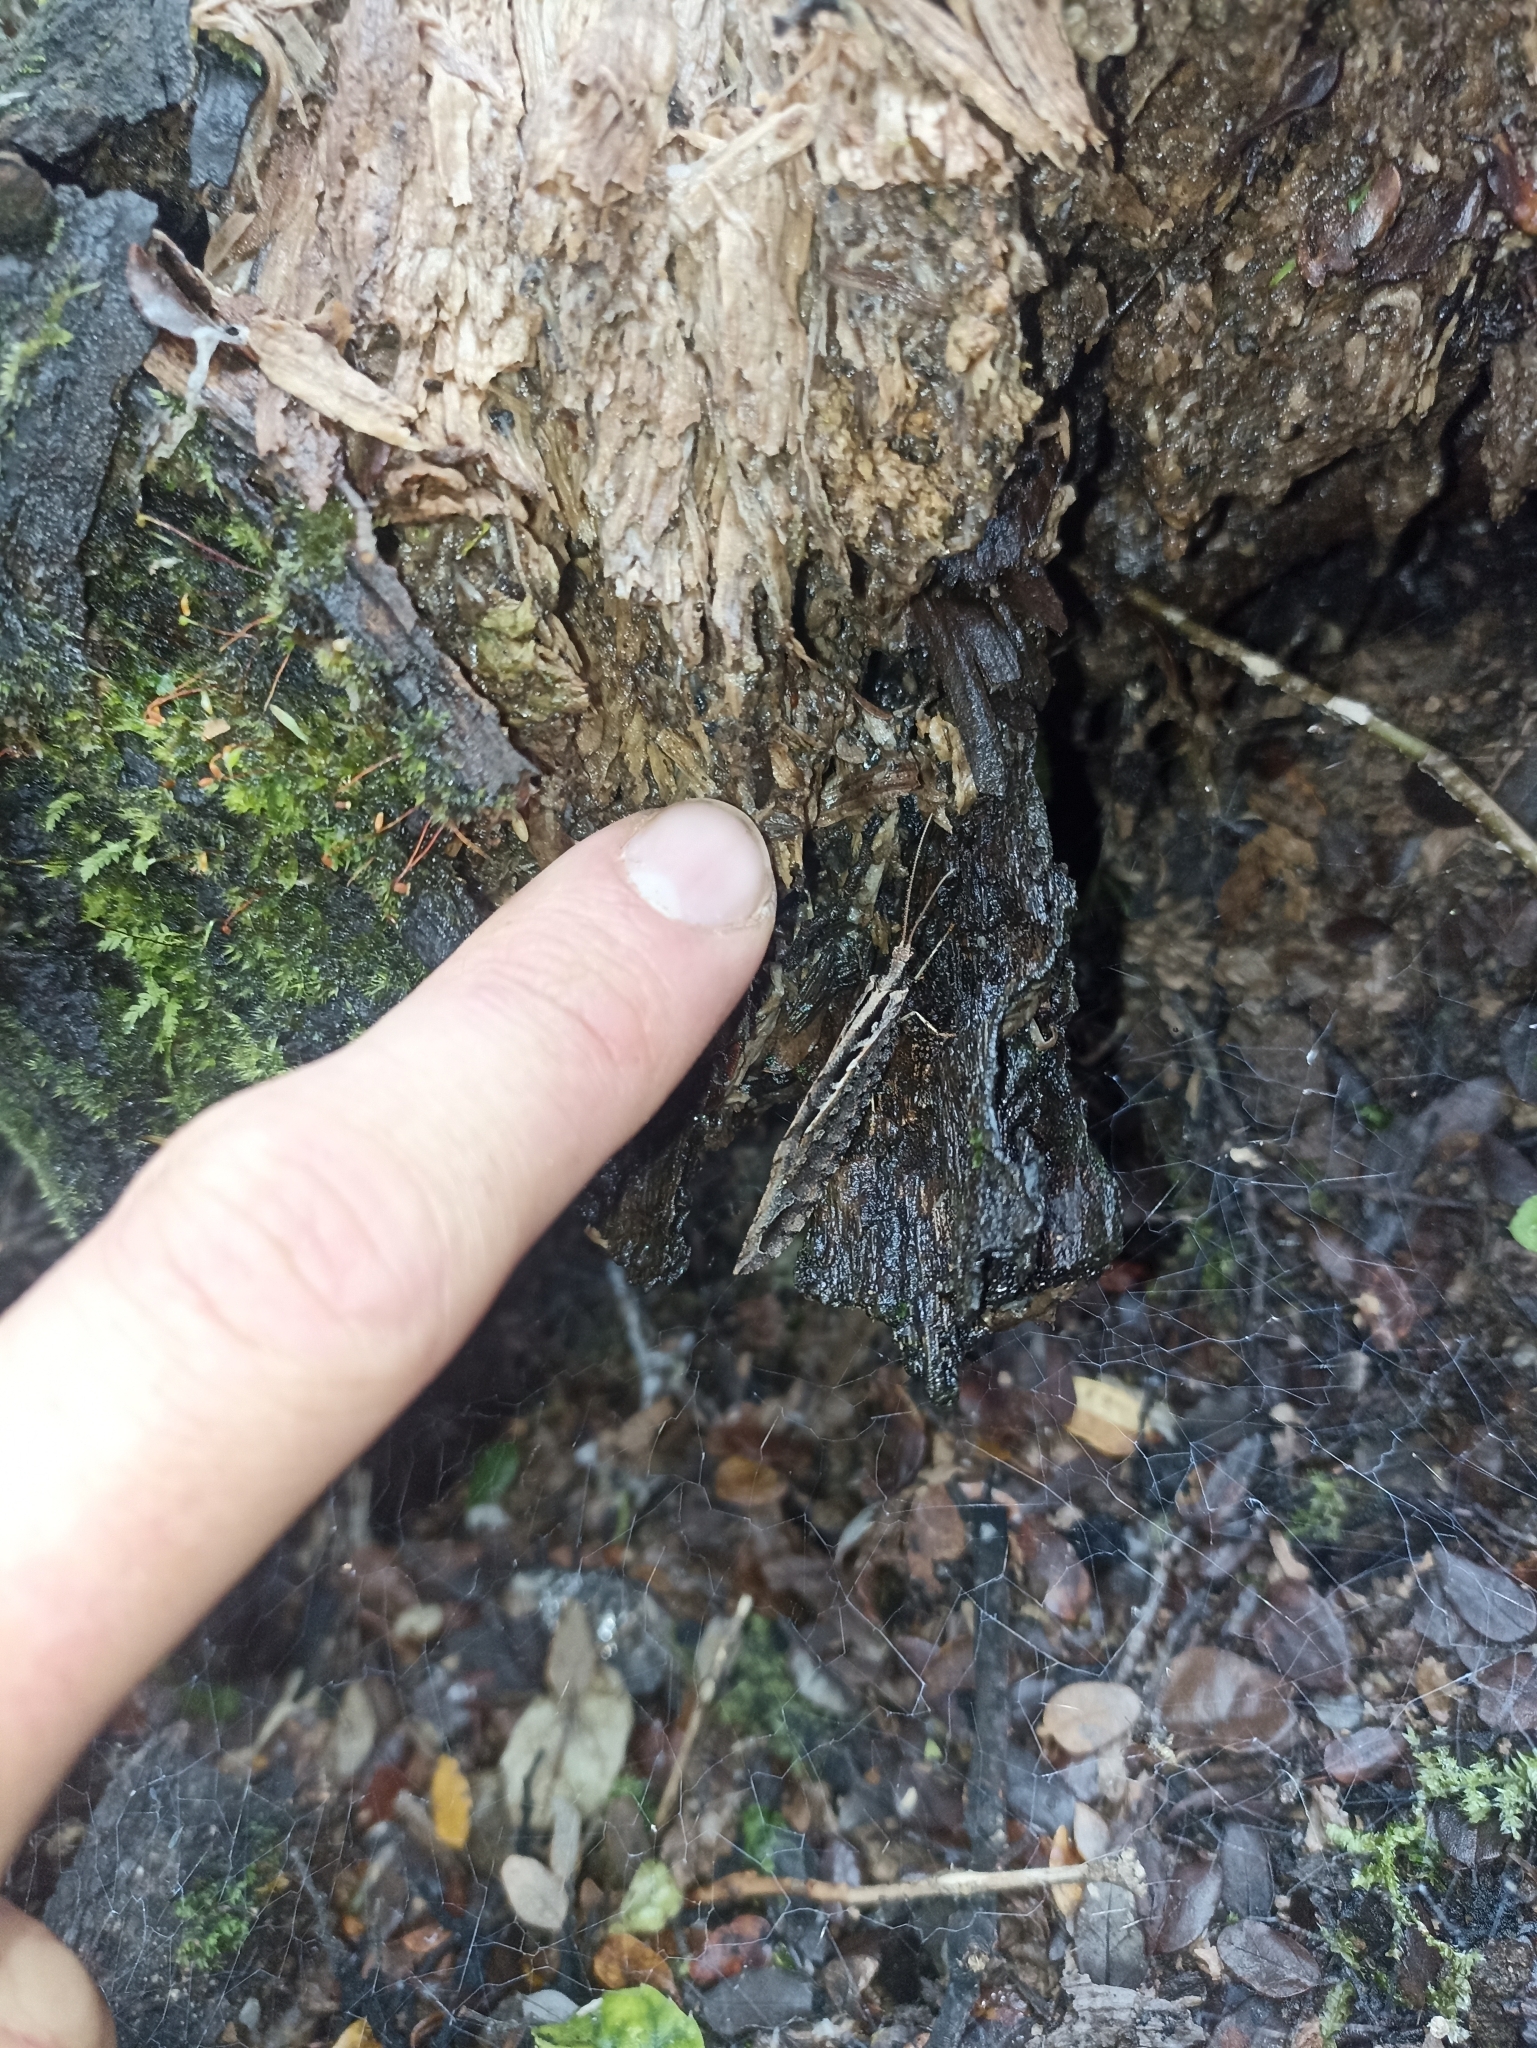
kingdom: Animalia
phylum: Arthropoda
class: Insecta
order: Neuroptera
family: Osmylidae
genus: Kempynus
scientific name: Kempynus incisus
